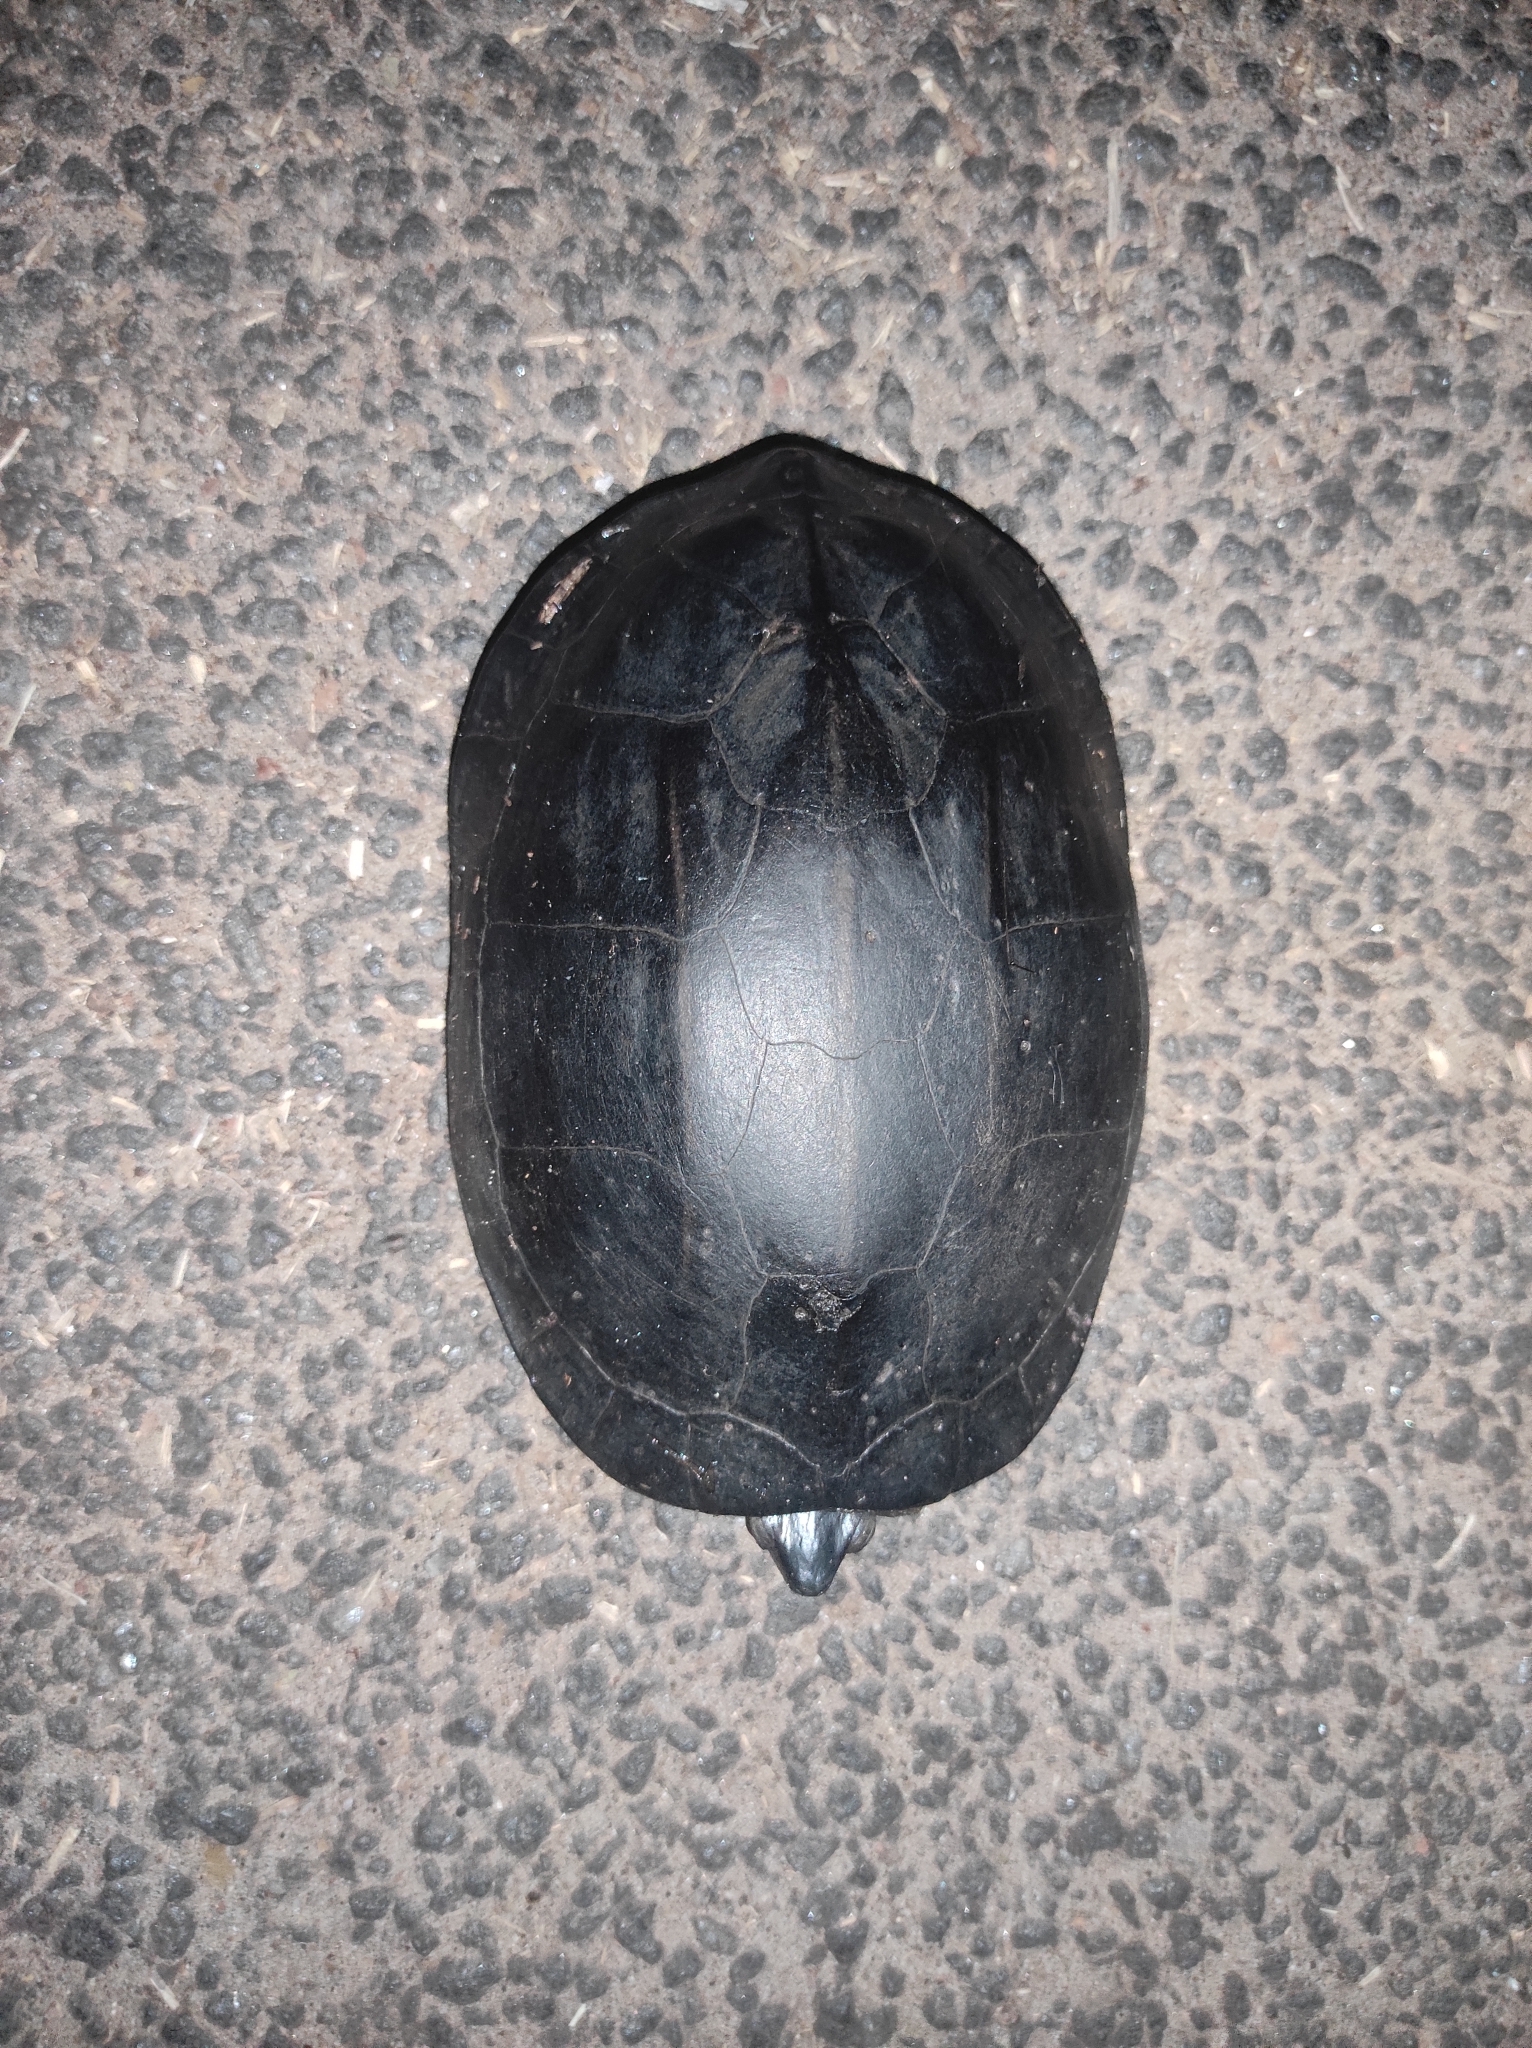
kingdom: Animalia
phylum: Chordata
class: Testudines
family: Geoemydidae
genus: Melanochelys
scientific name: Melanochelys trijuga
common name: Indian black turtle
